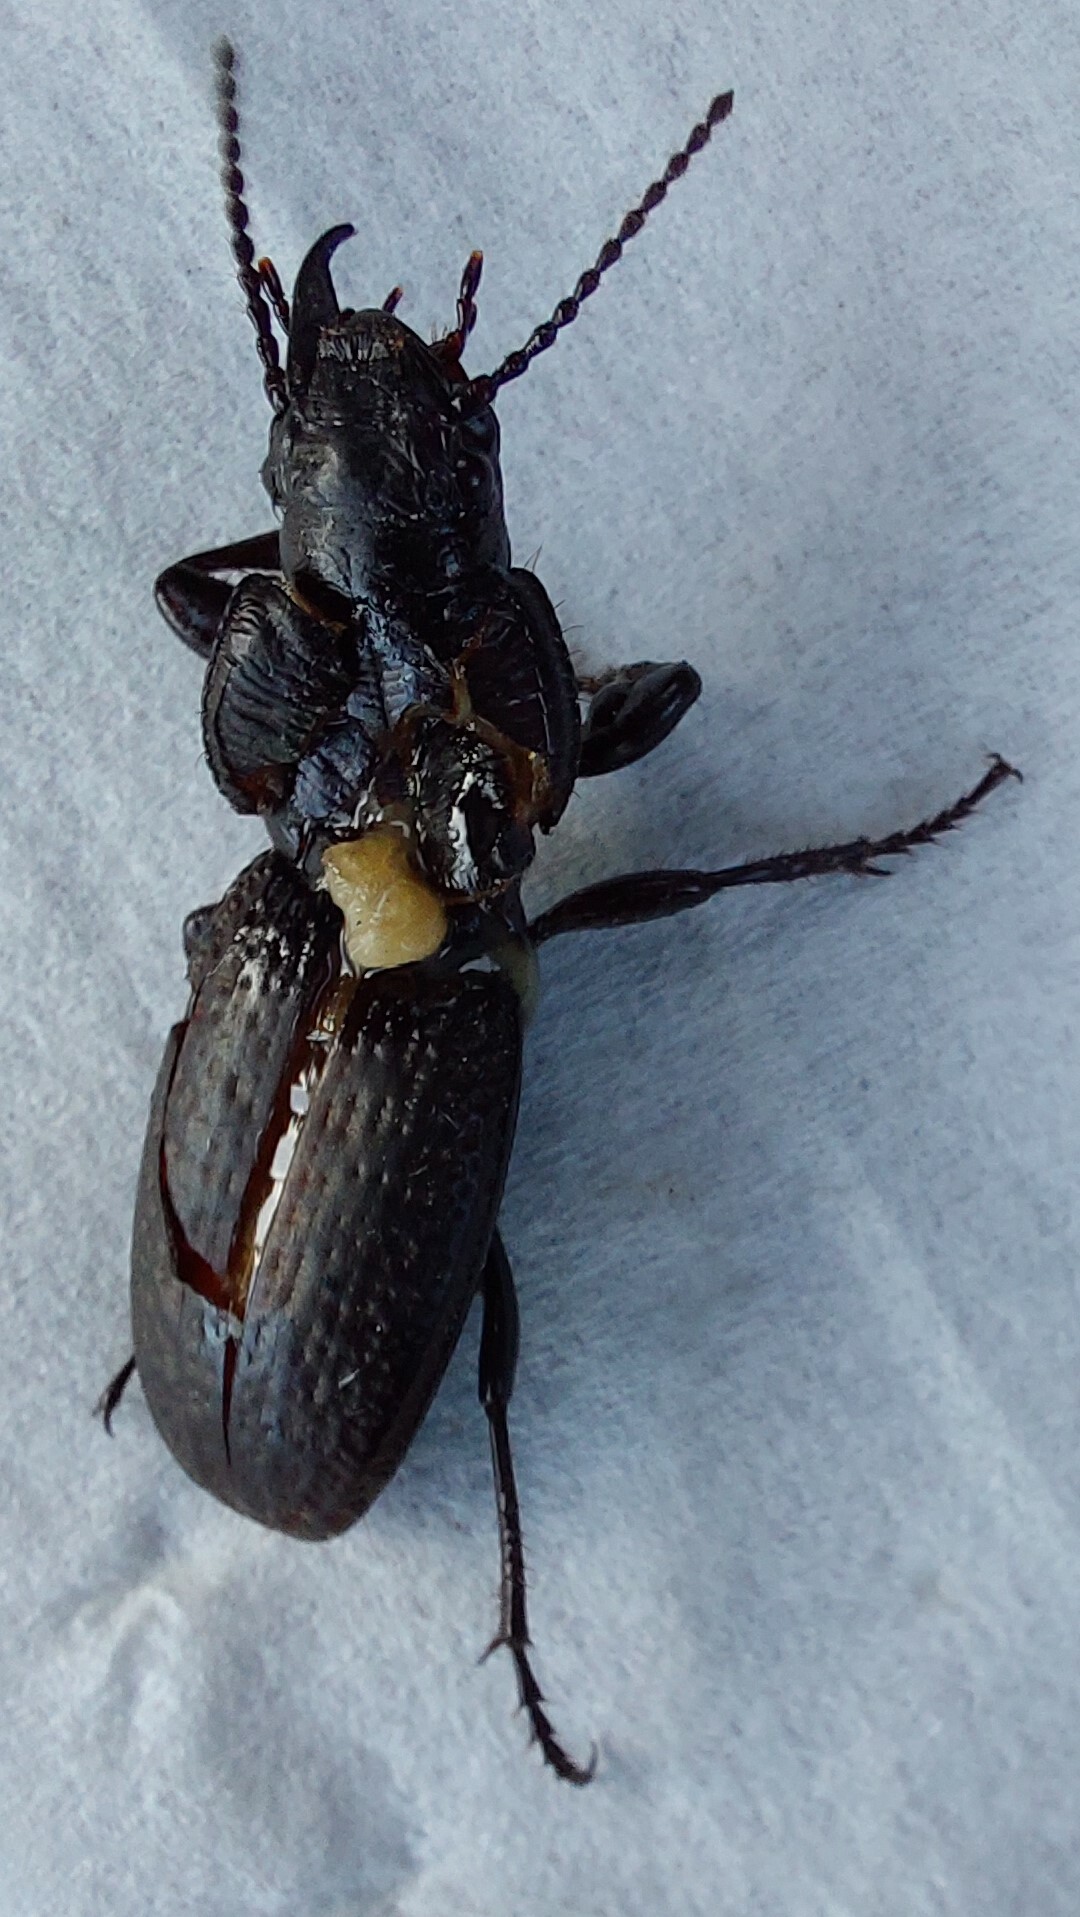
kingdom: Animalia
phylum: Arthropoda
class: Insecta
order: Coleoptera
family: Carabidae
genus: Mecodema
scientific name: Mecodema crenaticolle
